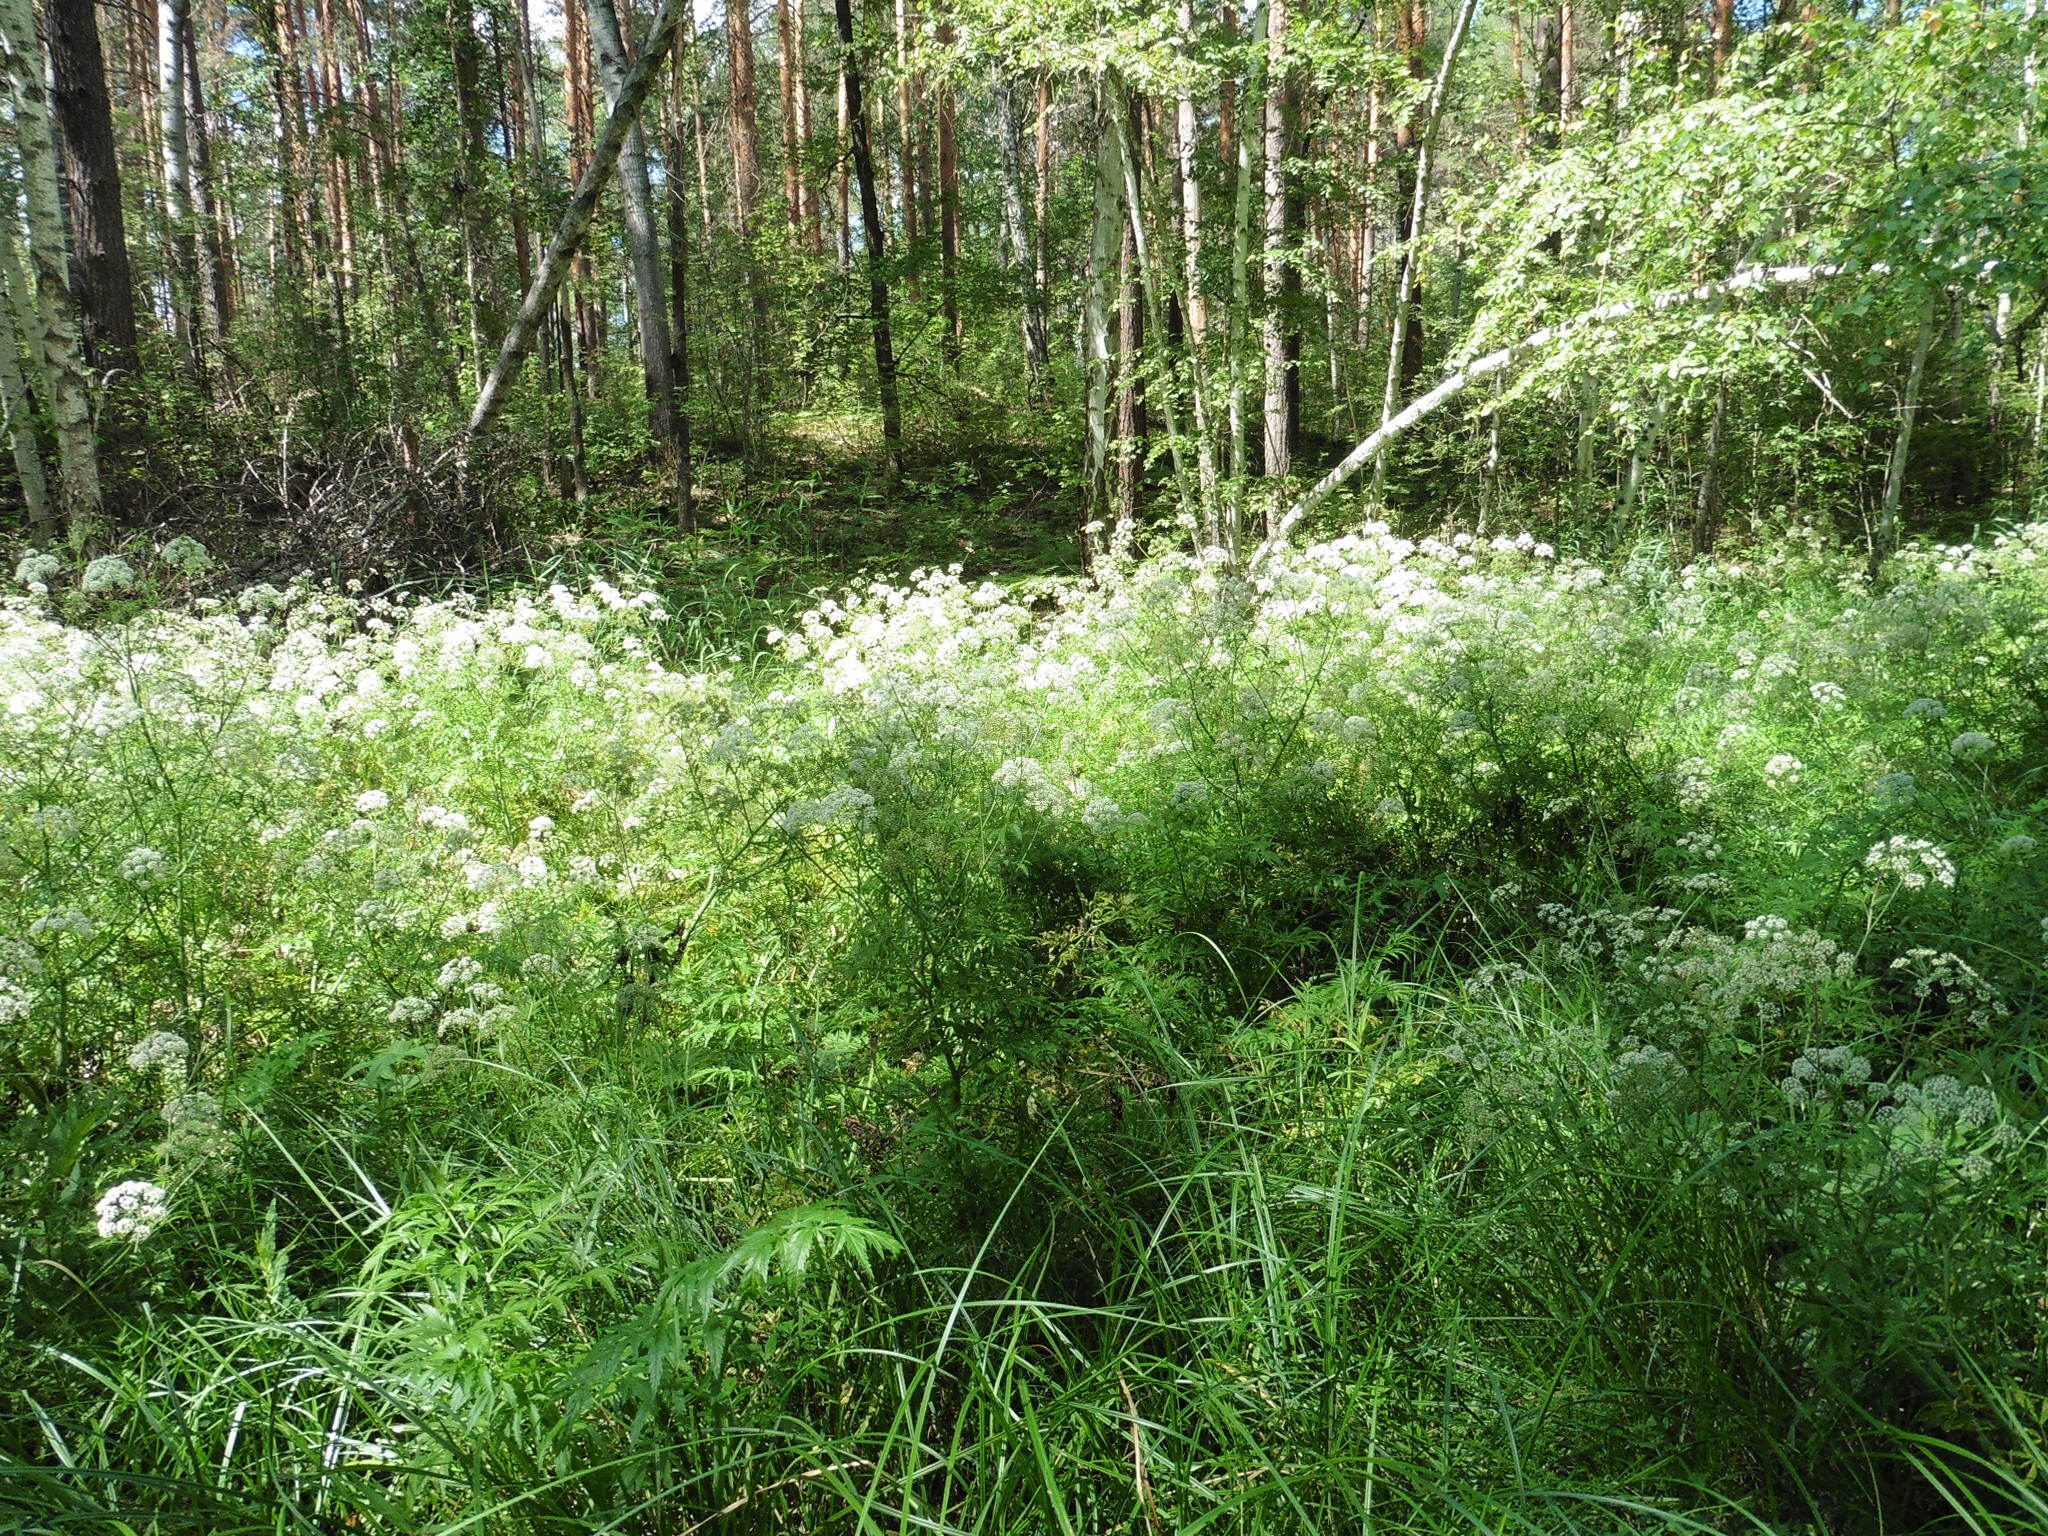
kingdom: Plantae
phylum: Tracheophyta
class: Magnoliopsida
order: Apiales
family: Apiaceae
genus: Cicuta
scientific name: Cicuta virosa
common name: Cowbane
